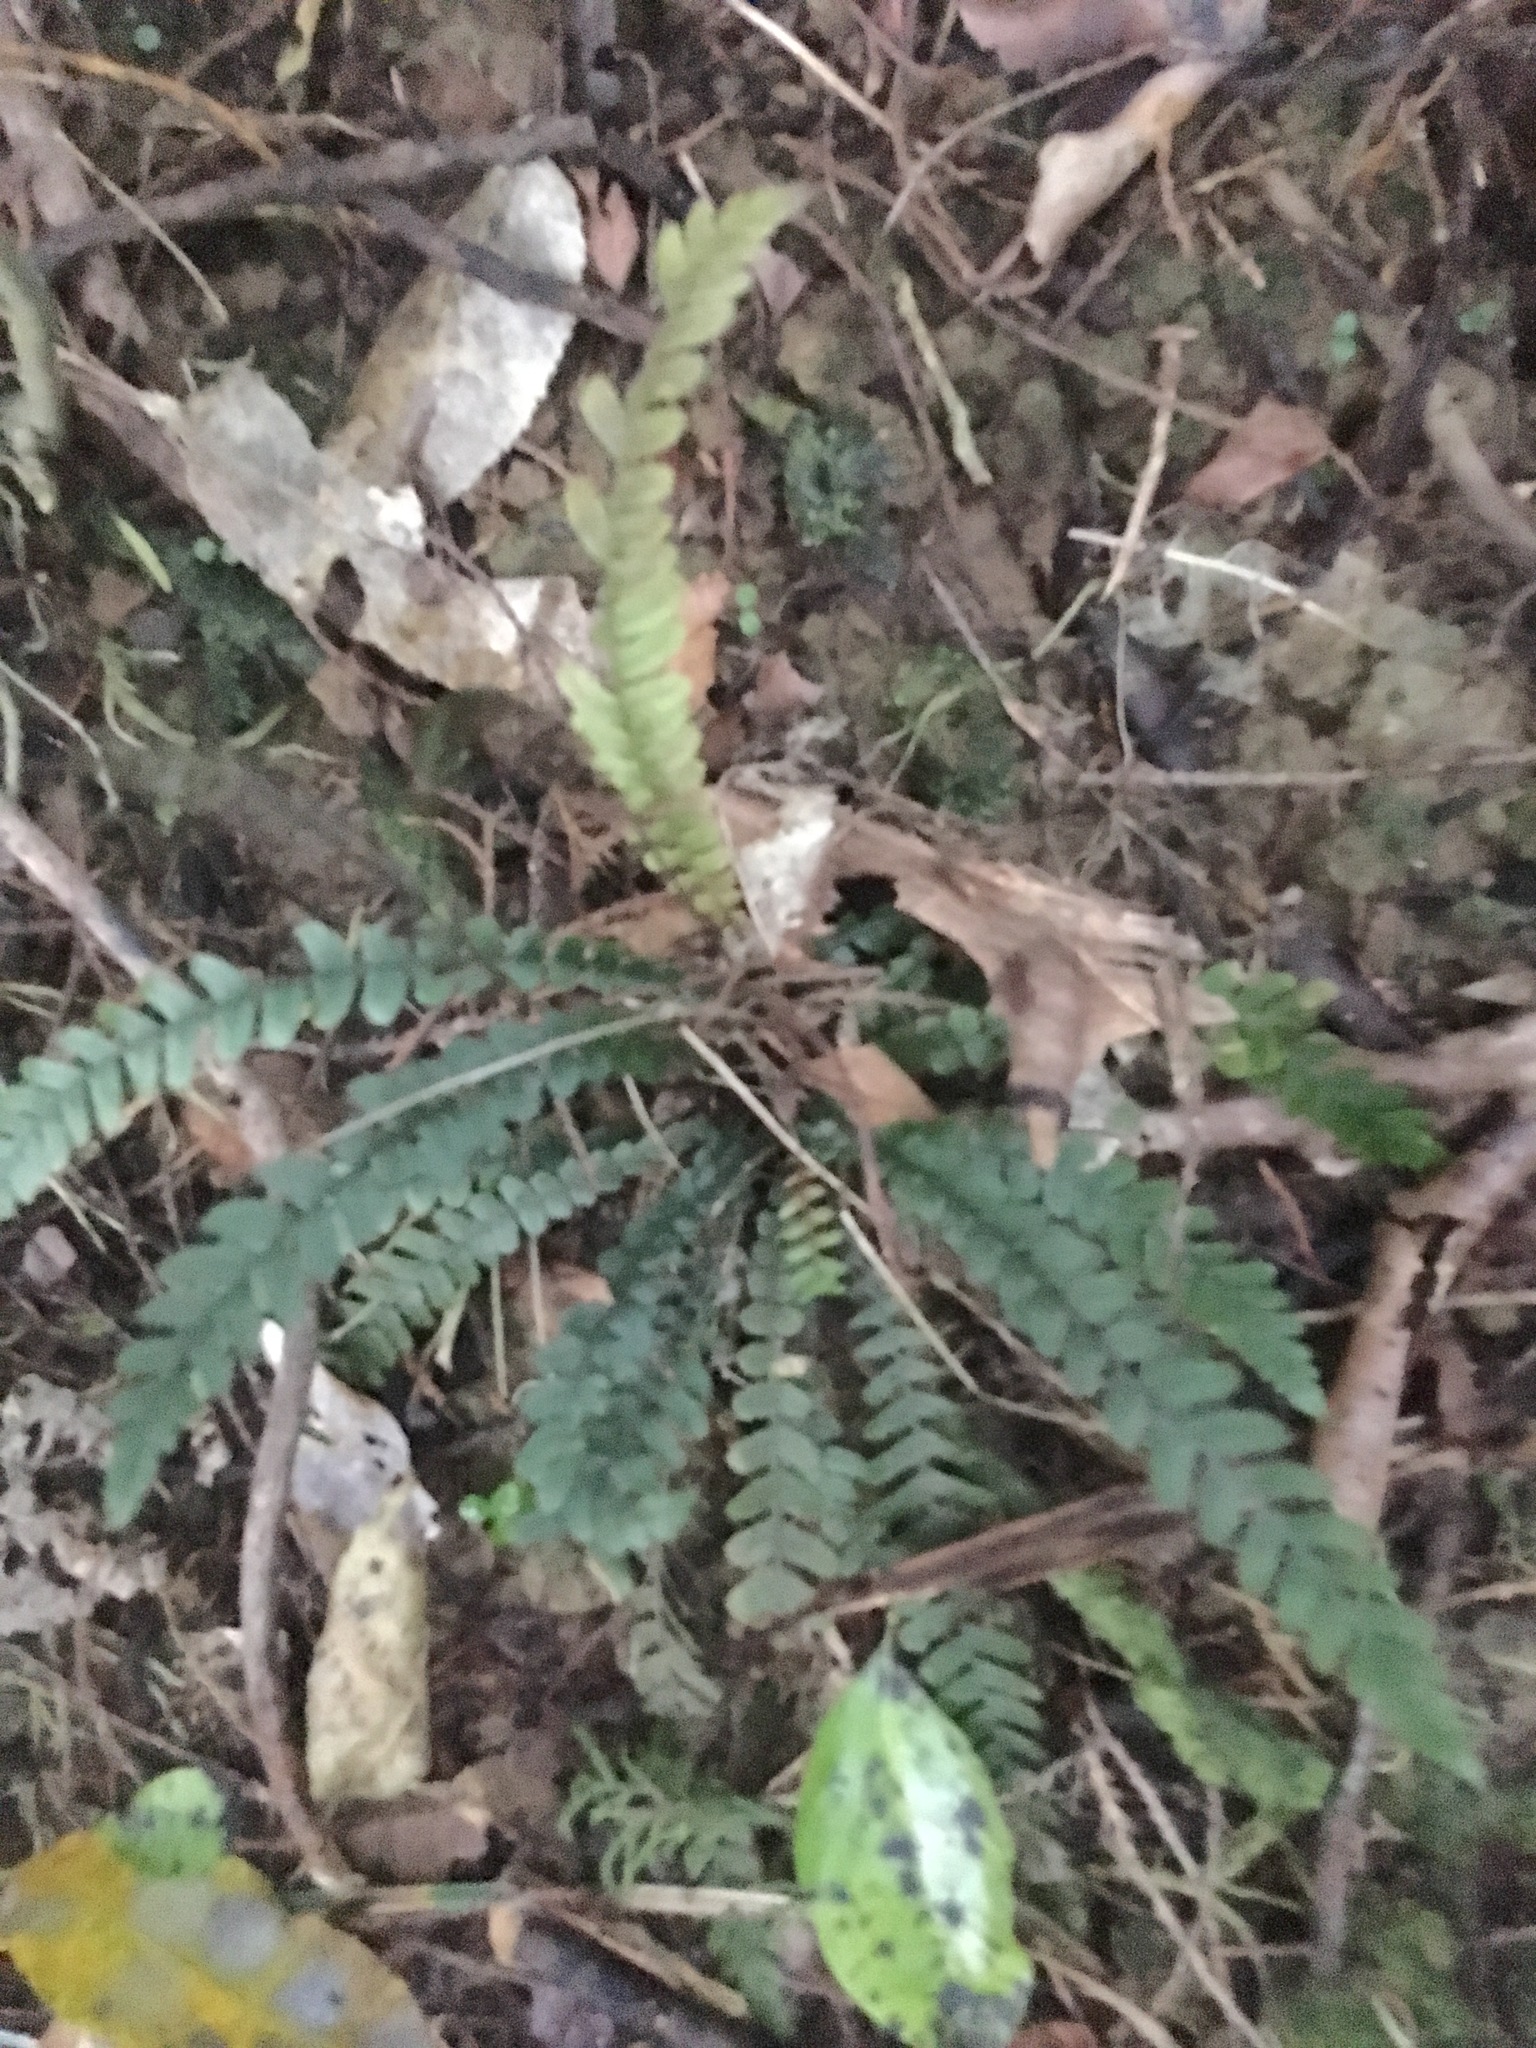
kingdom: Plantae
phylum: Tracheophyta
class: Polypodiopsida
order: Polypodiales
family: Blechnaceae
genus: Austroblechnum
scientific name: Austroblechnum membranaceum
